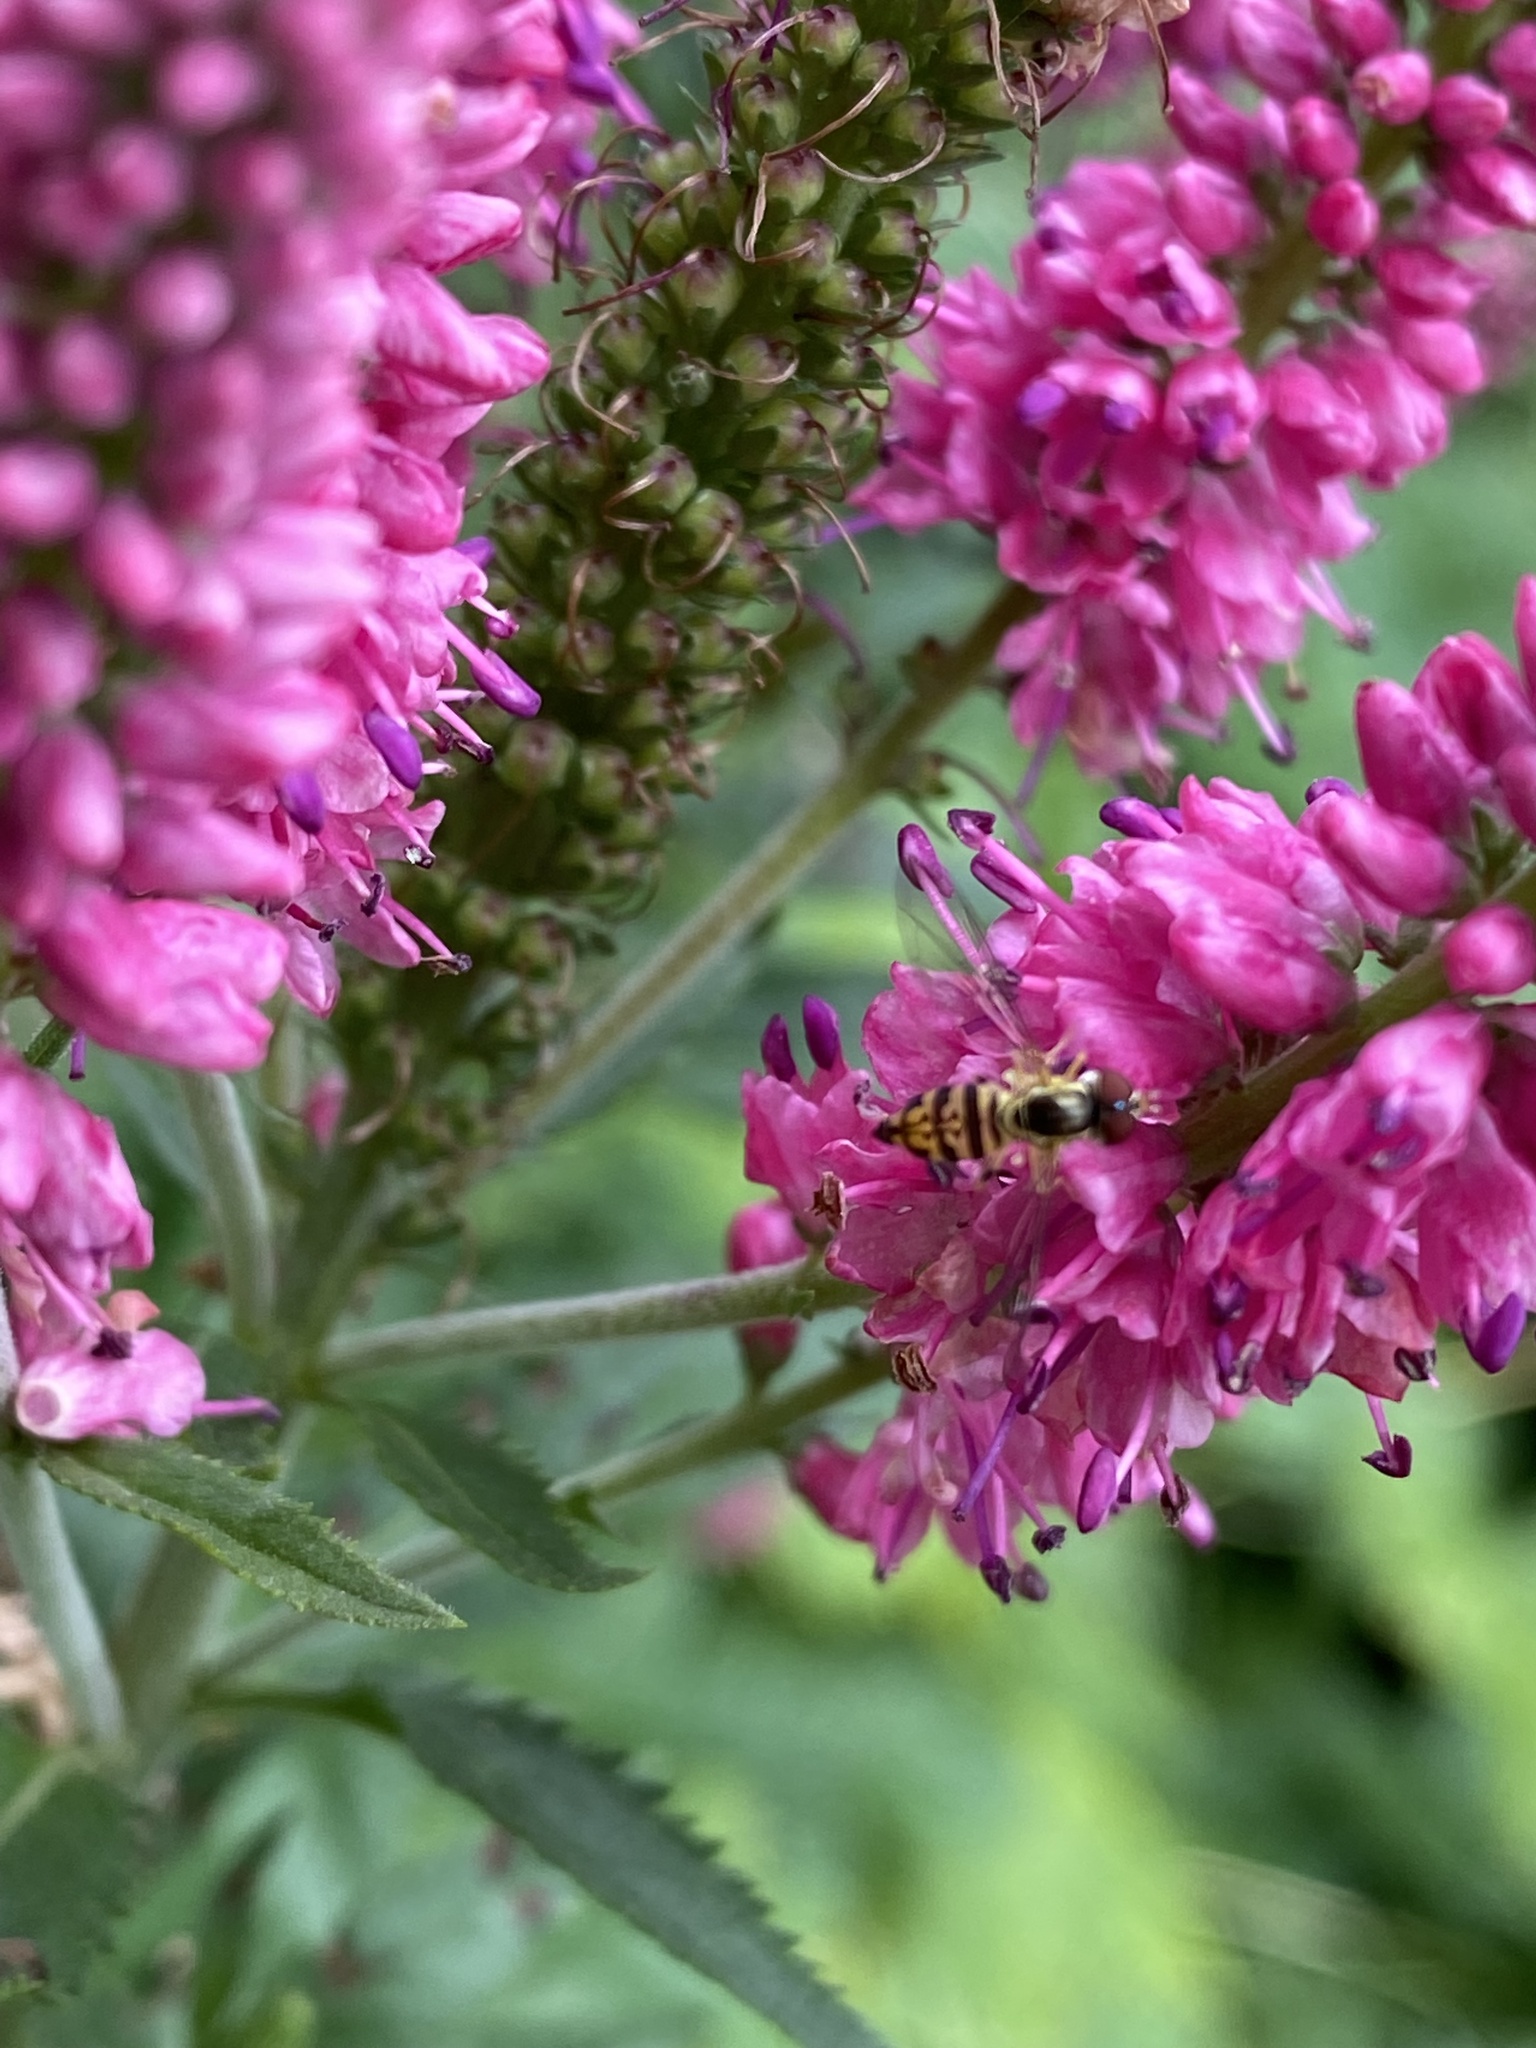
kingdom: Animalia
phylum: Arthropoda
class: Insecta
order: Diptera
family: Syrphidae
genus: Toxomerus
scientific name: Toxomerus geminatus
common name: Eastern calligrapher
